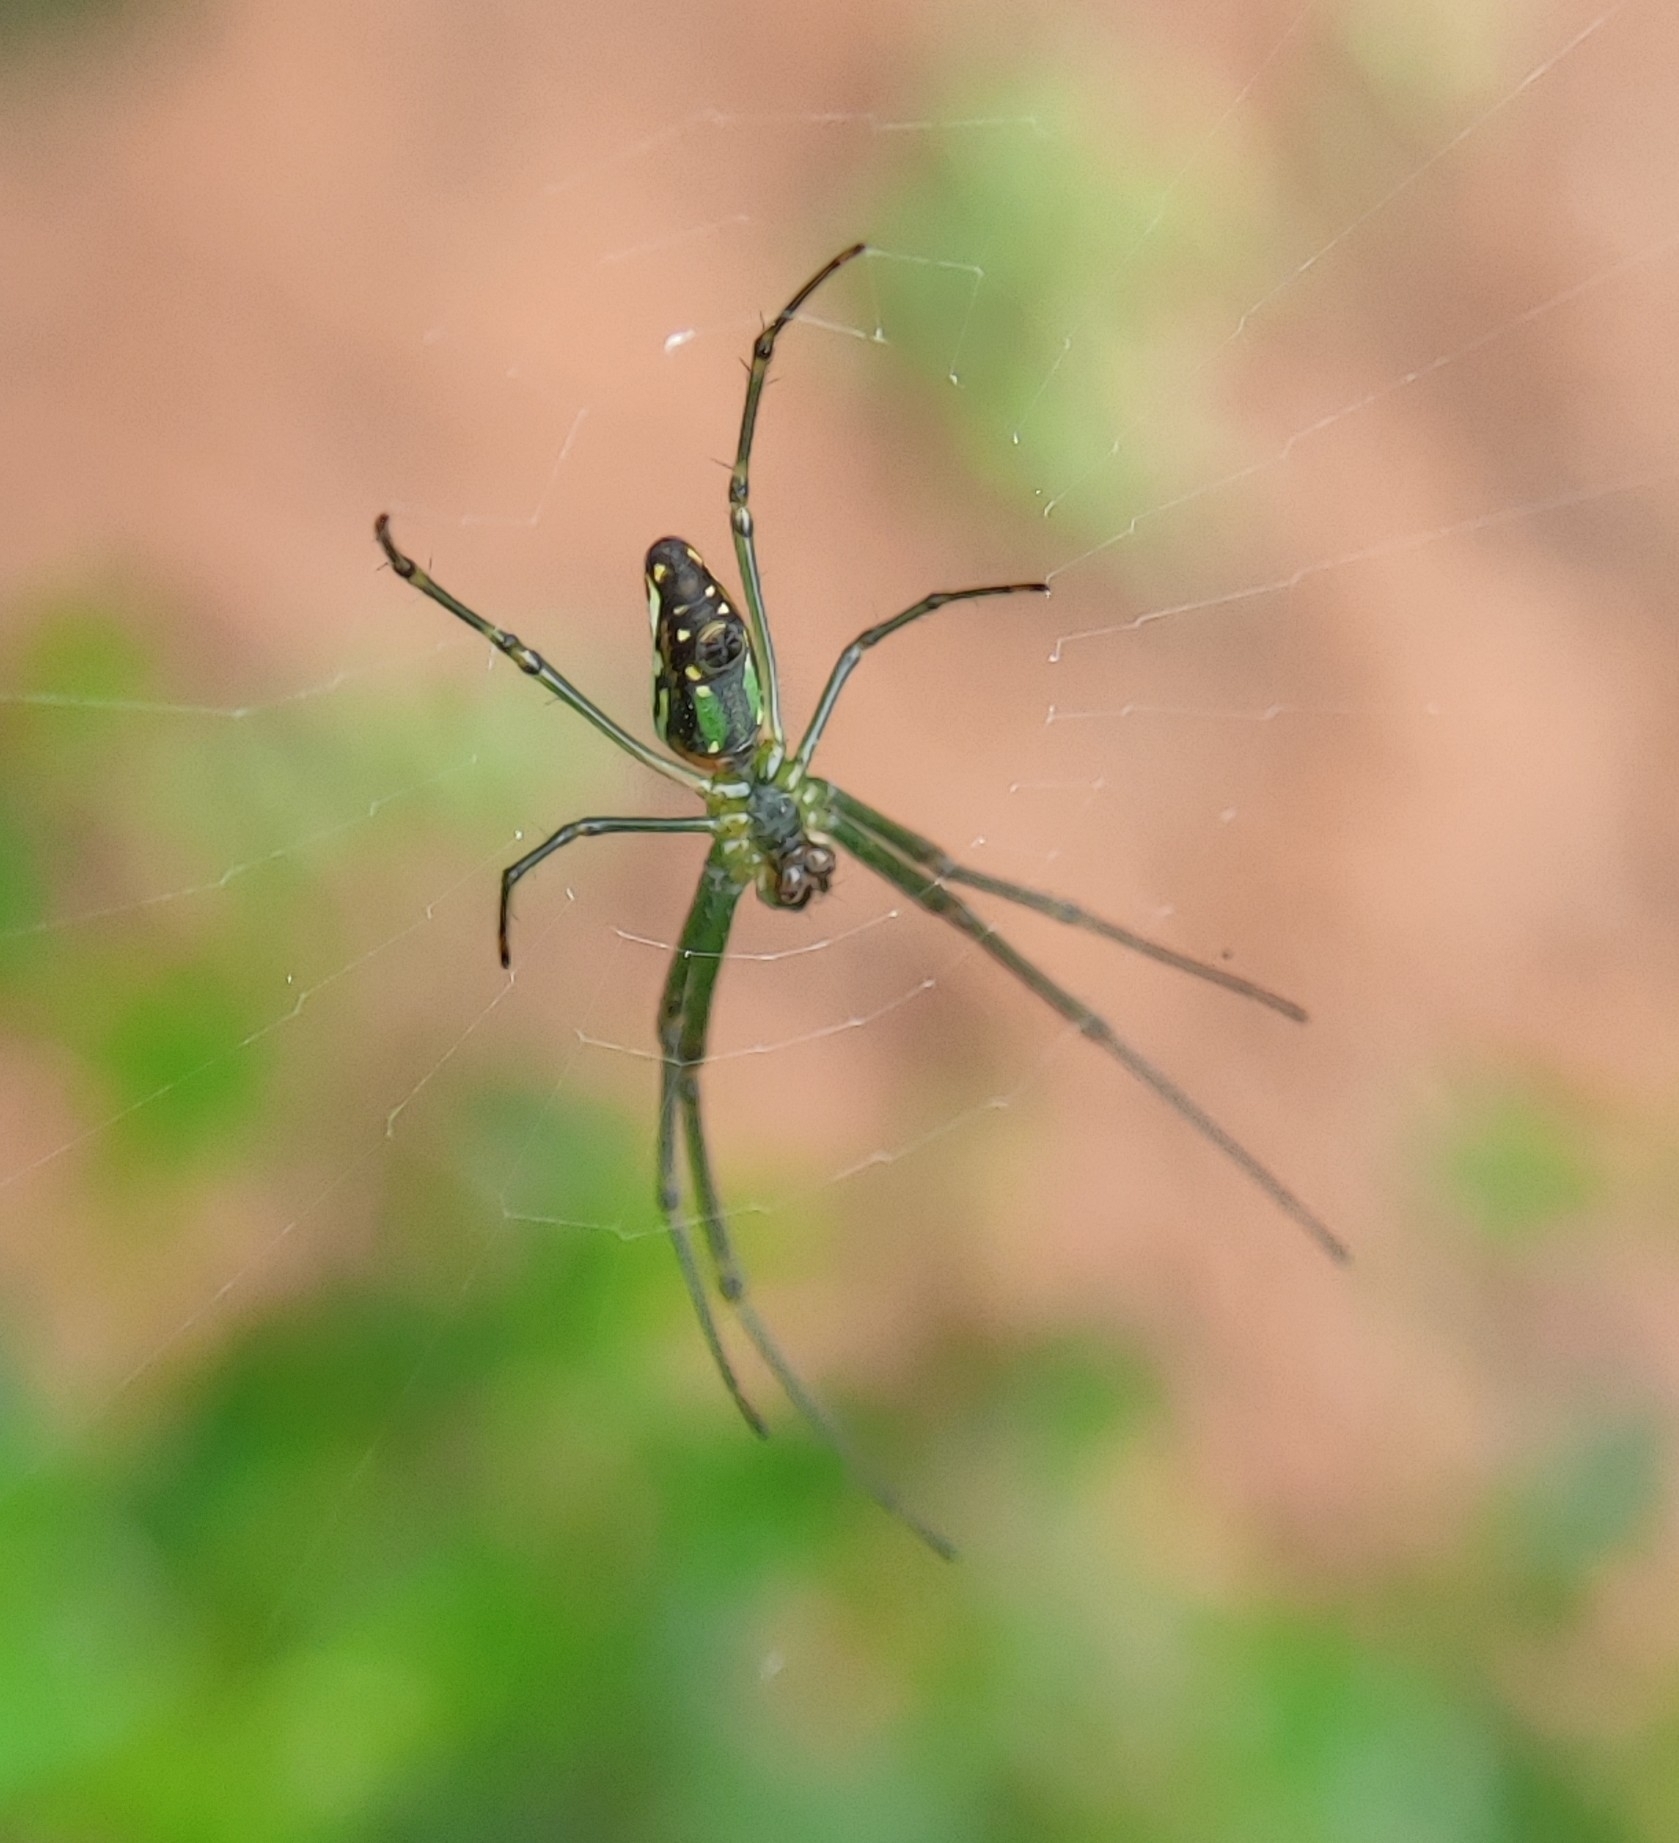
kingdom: Animalia
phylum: Arthropoda
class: Arachnida
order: Araneae
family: Tetragnathidae
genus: Leucauge
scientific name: Leucauge decorata
